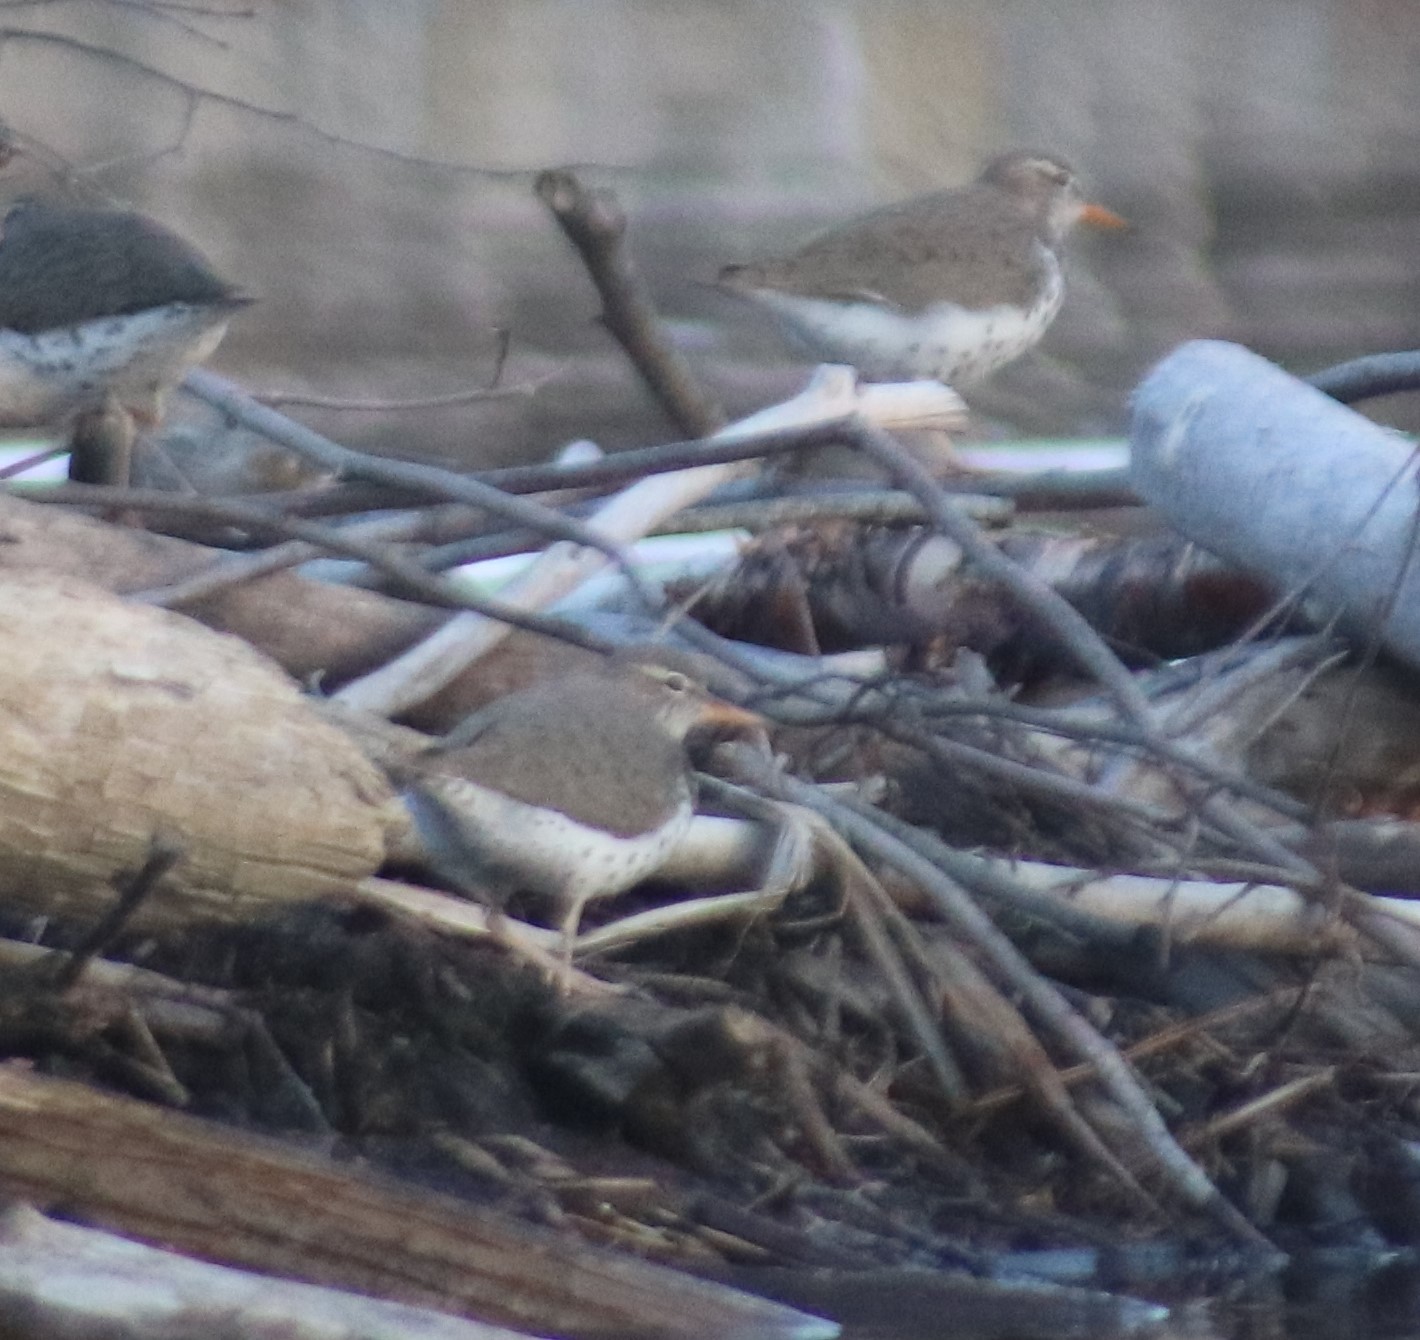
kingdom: Animalia
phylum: Chordata
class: Aves
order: Charadriiformes
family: Scolopacidae
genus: Actitis
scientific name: Actitis macularius
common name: Spotted sandpiper
